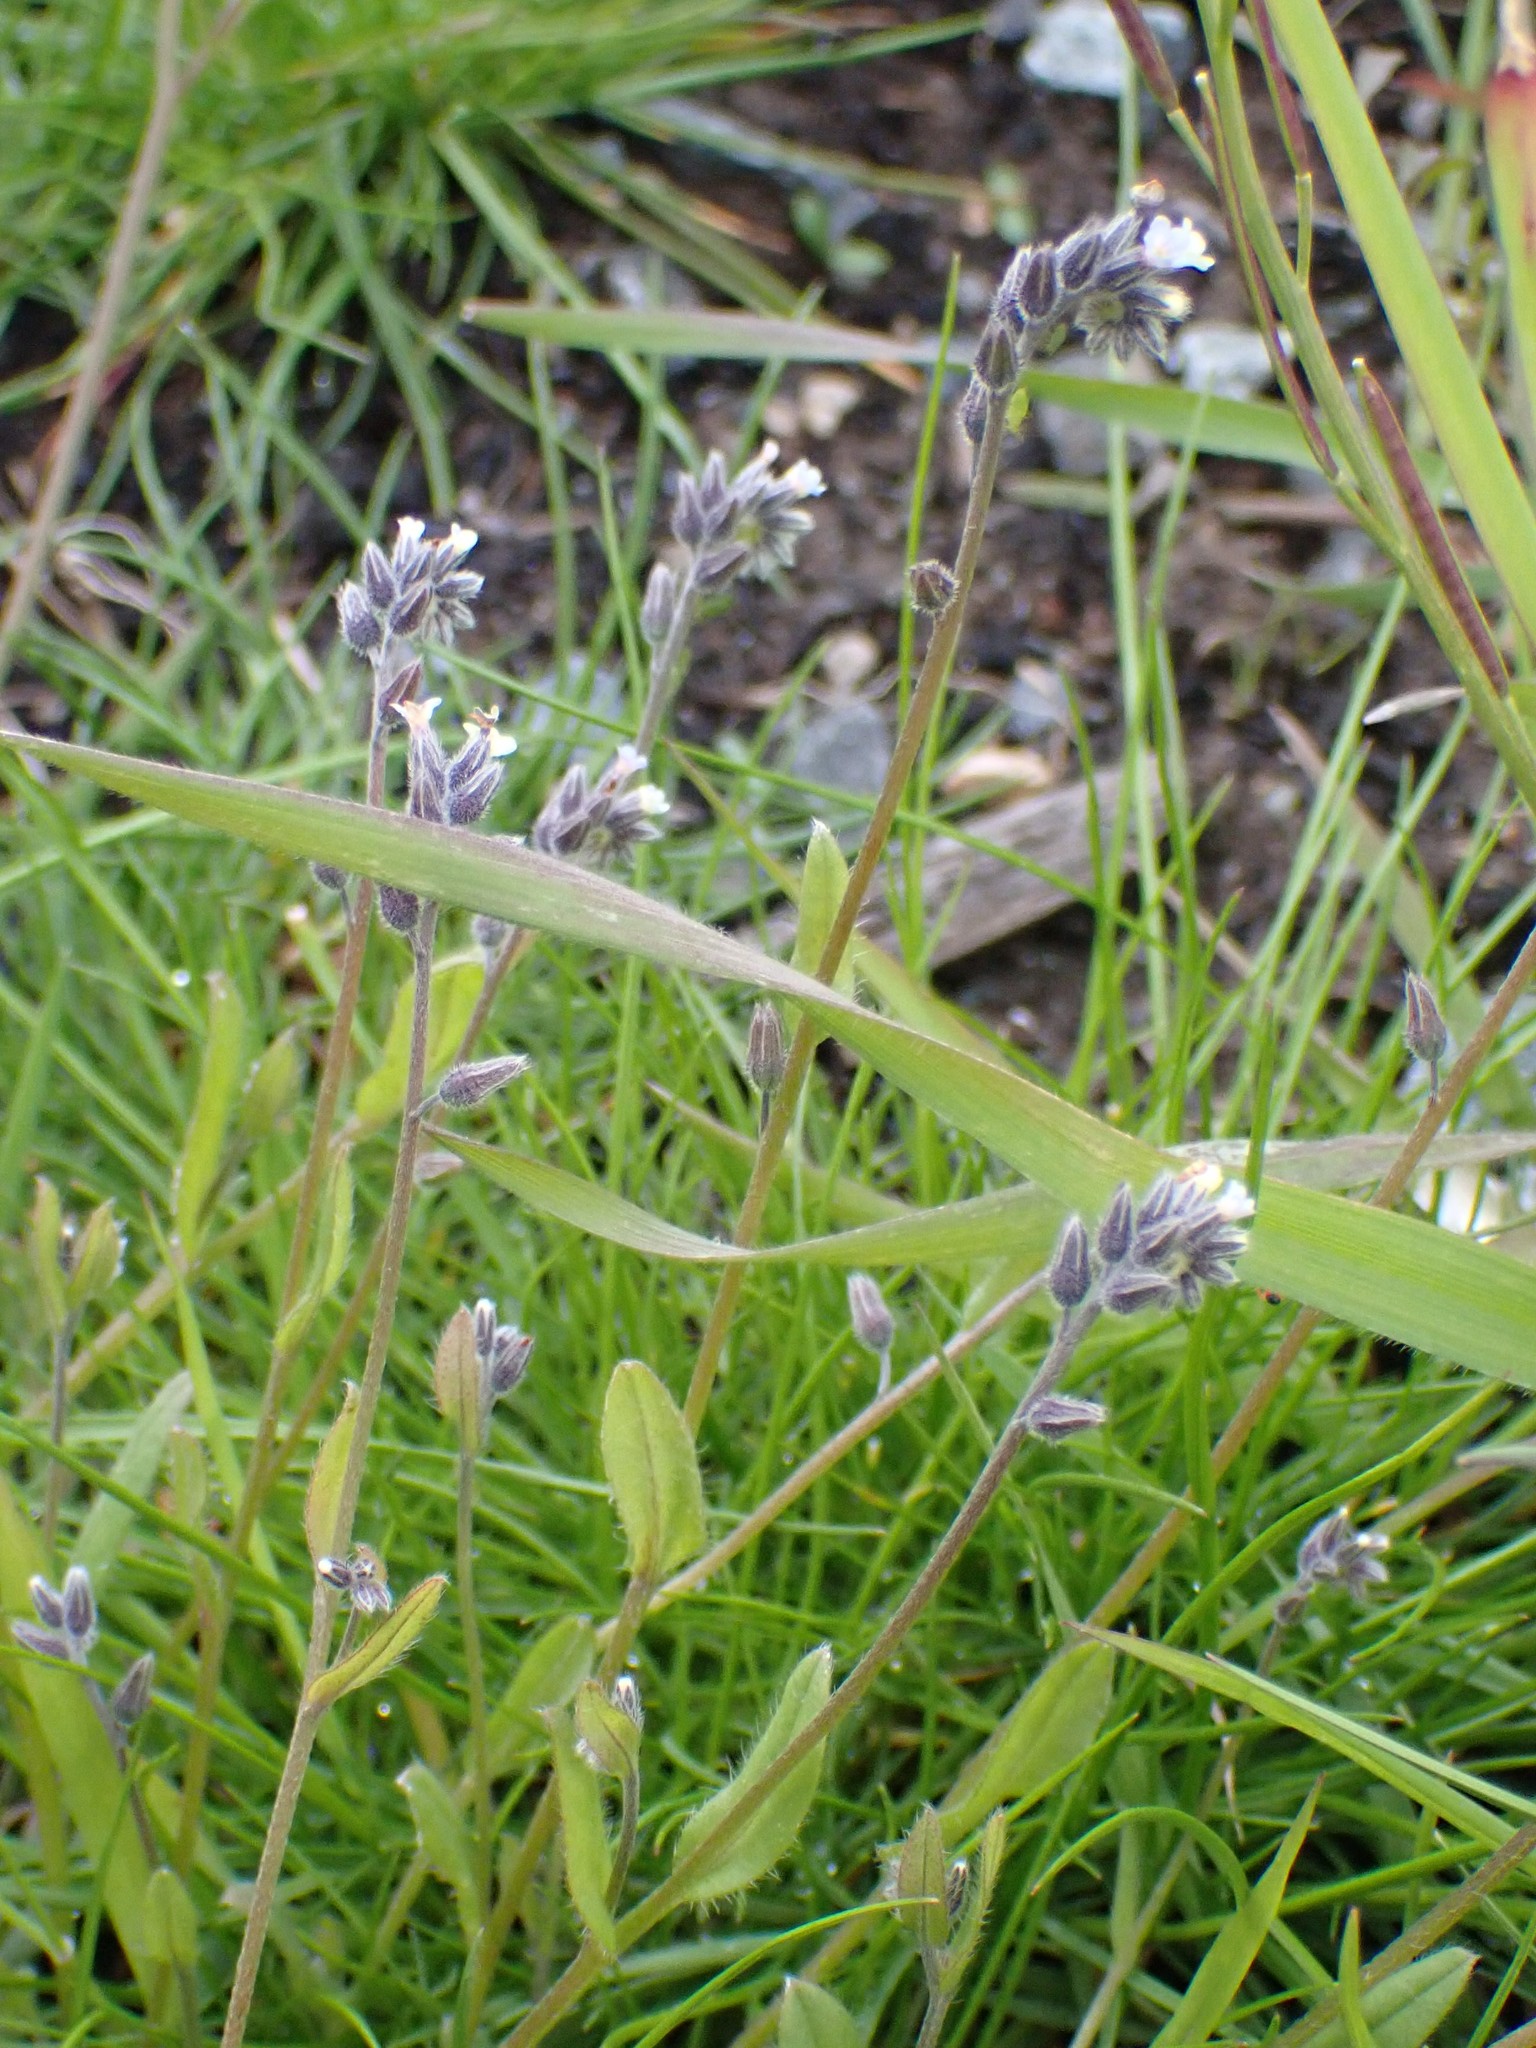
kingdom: Plantae
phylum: Tracheophyta
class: Magnoliopsida
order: Boraginales
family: Boraginaceae
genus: Myosotis
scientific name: Myosotis discolor
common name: Changing forget-me-not
